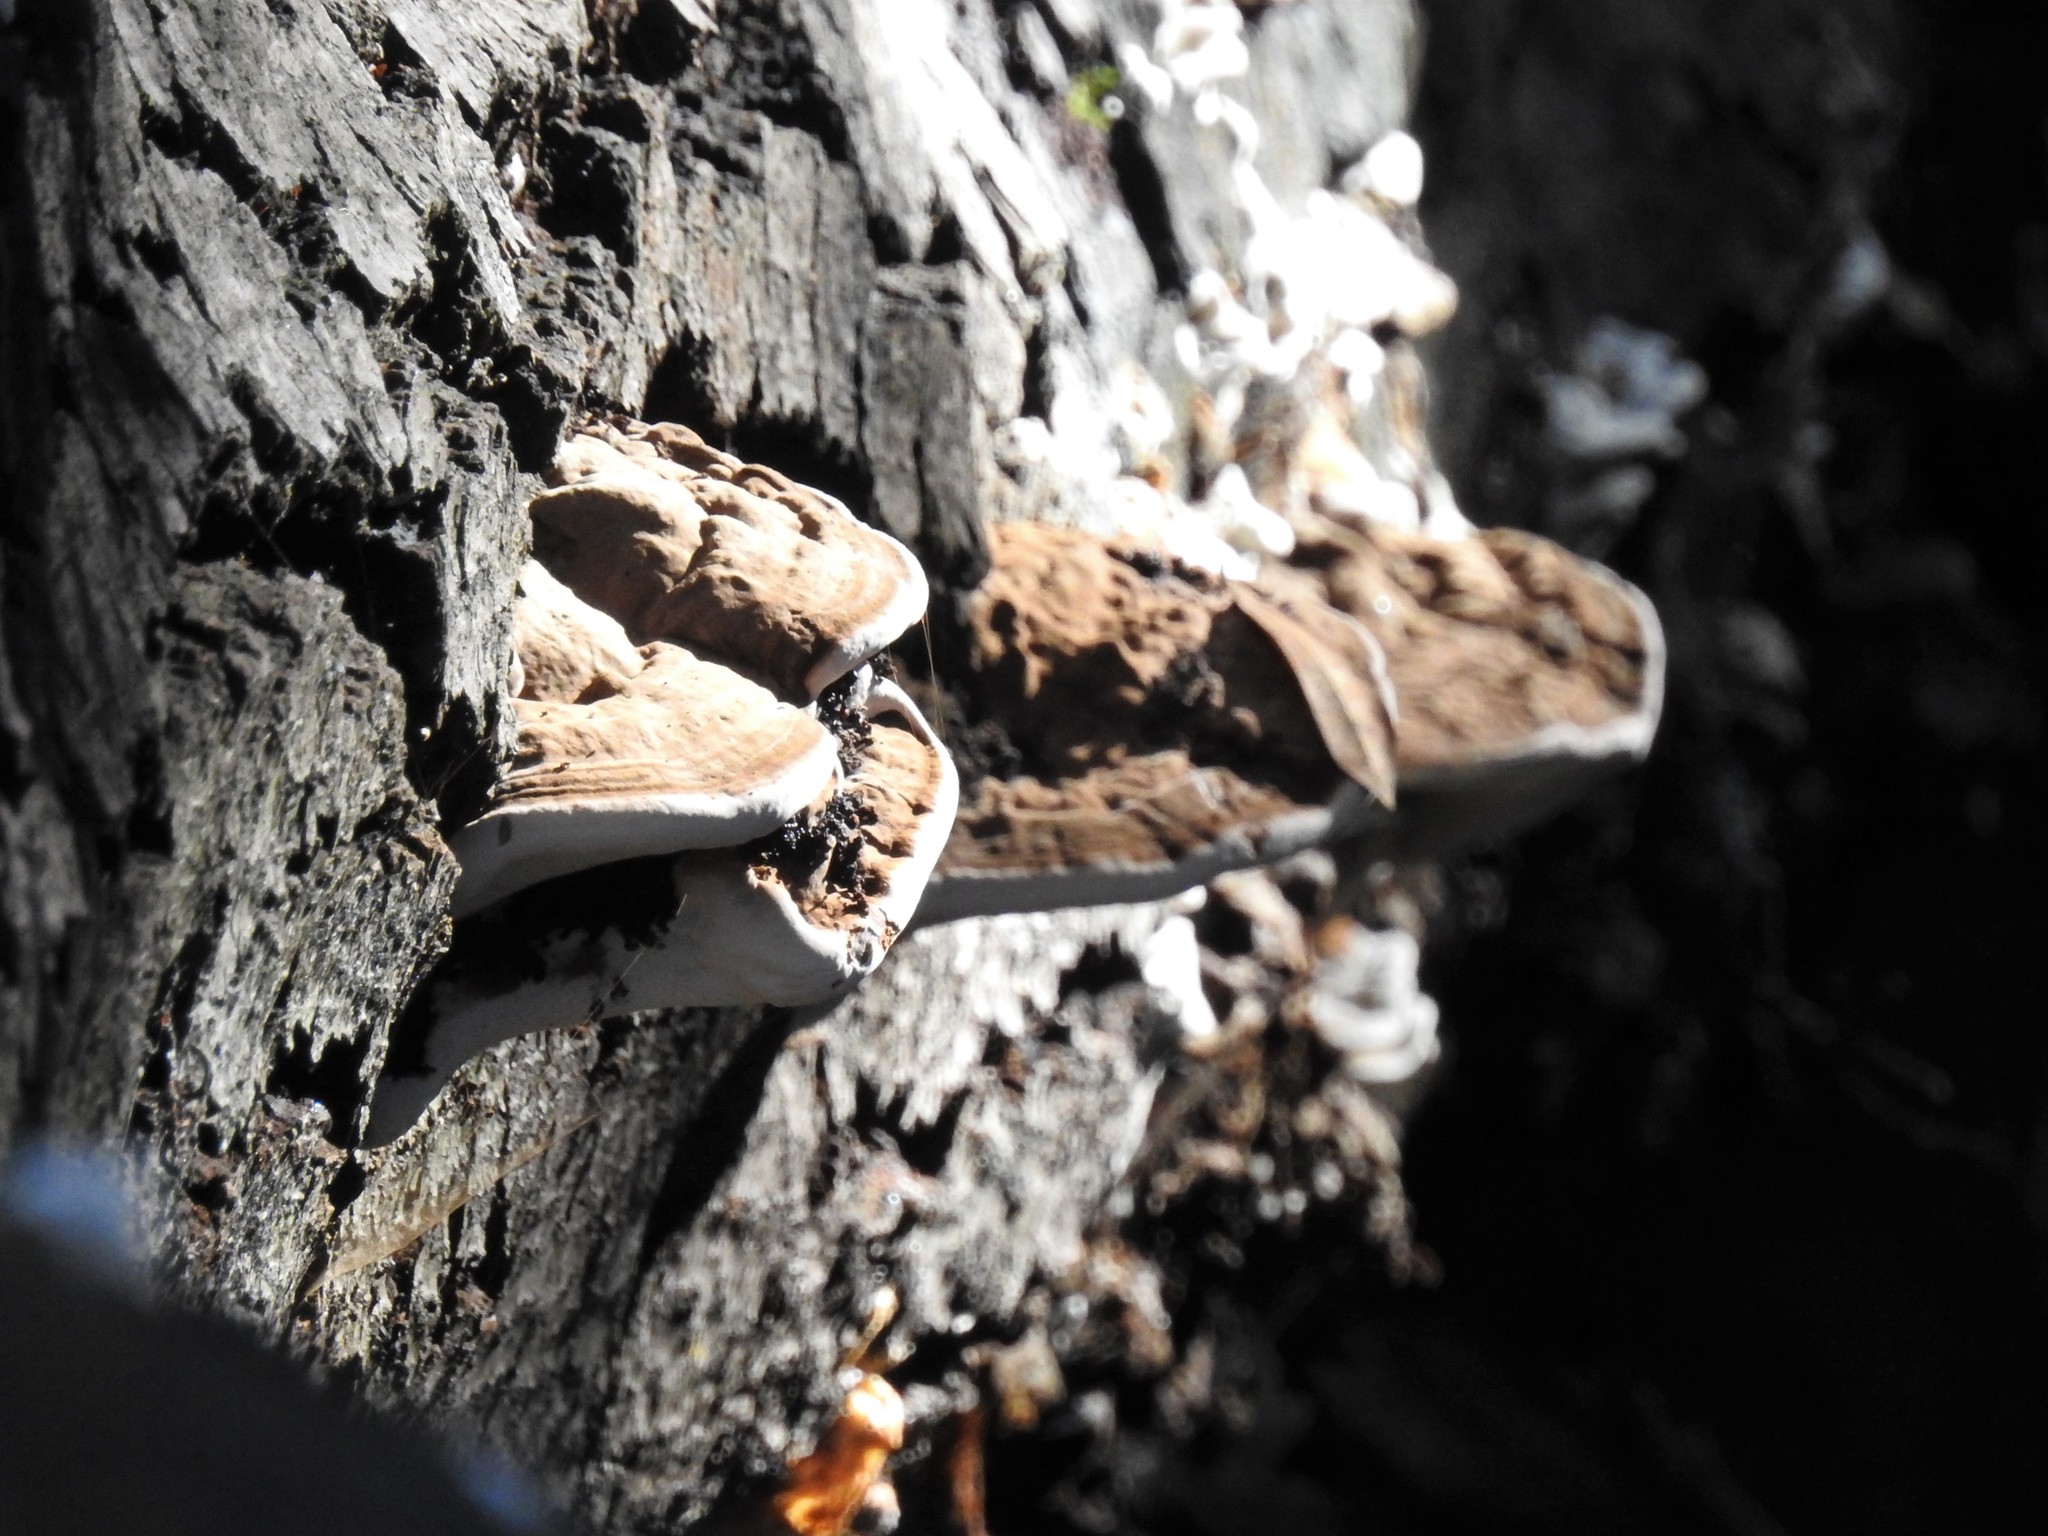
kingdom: Fungi
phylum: Basidiomycota
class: Agaricomycetes
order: Polyporales
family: Polyporaceae
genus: Ganoderma
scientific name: Ganoderma brownii
